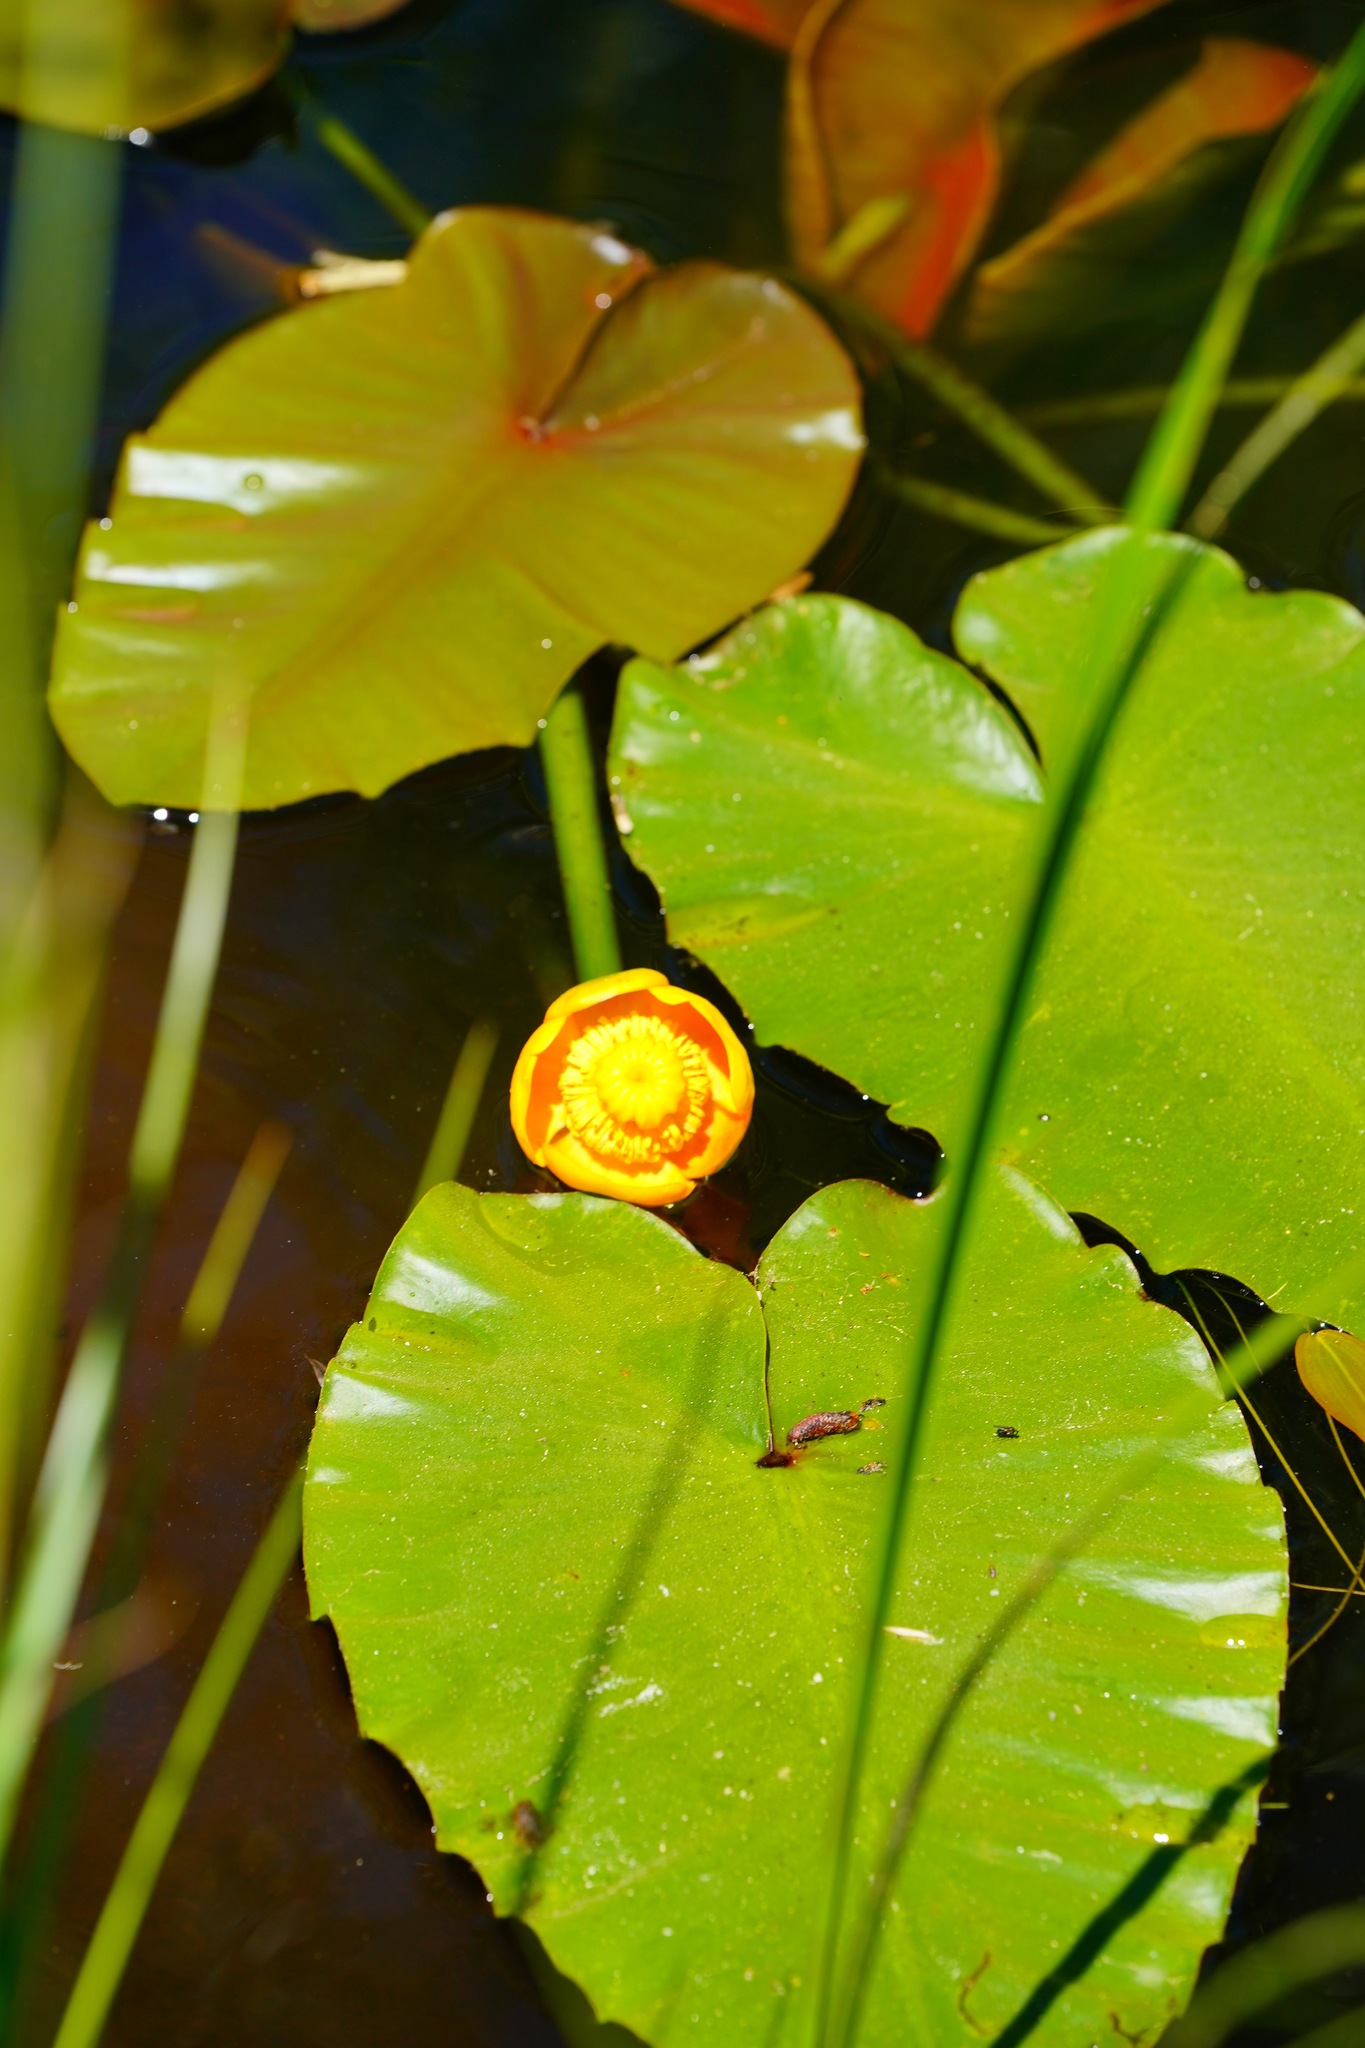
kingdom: Plantae
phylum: Tracheophyta
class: Magnoliopsida
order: Nymphaeales
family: Nymphaeaceae
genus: Nuphar
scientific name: Nuphar polysepala
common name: Rocky mountain cow-lily
